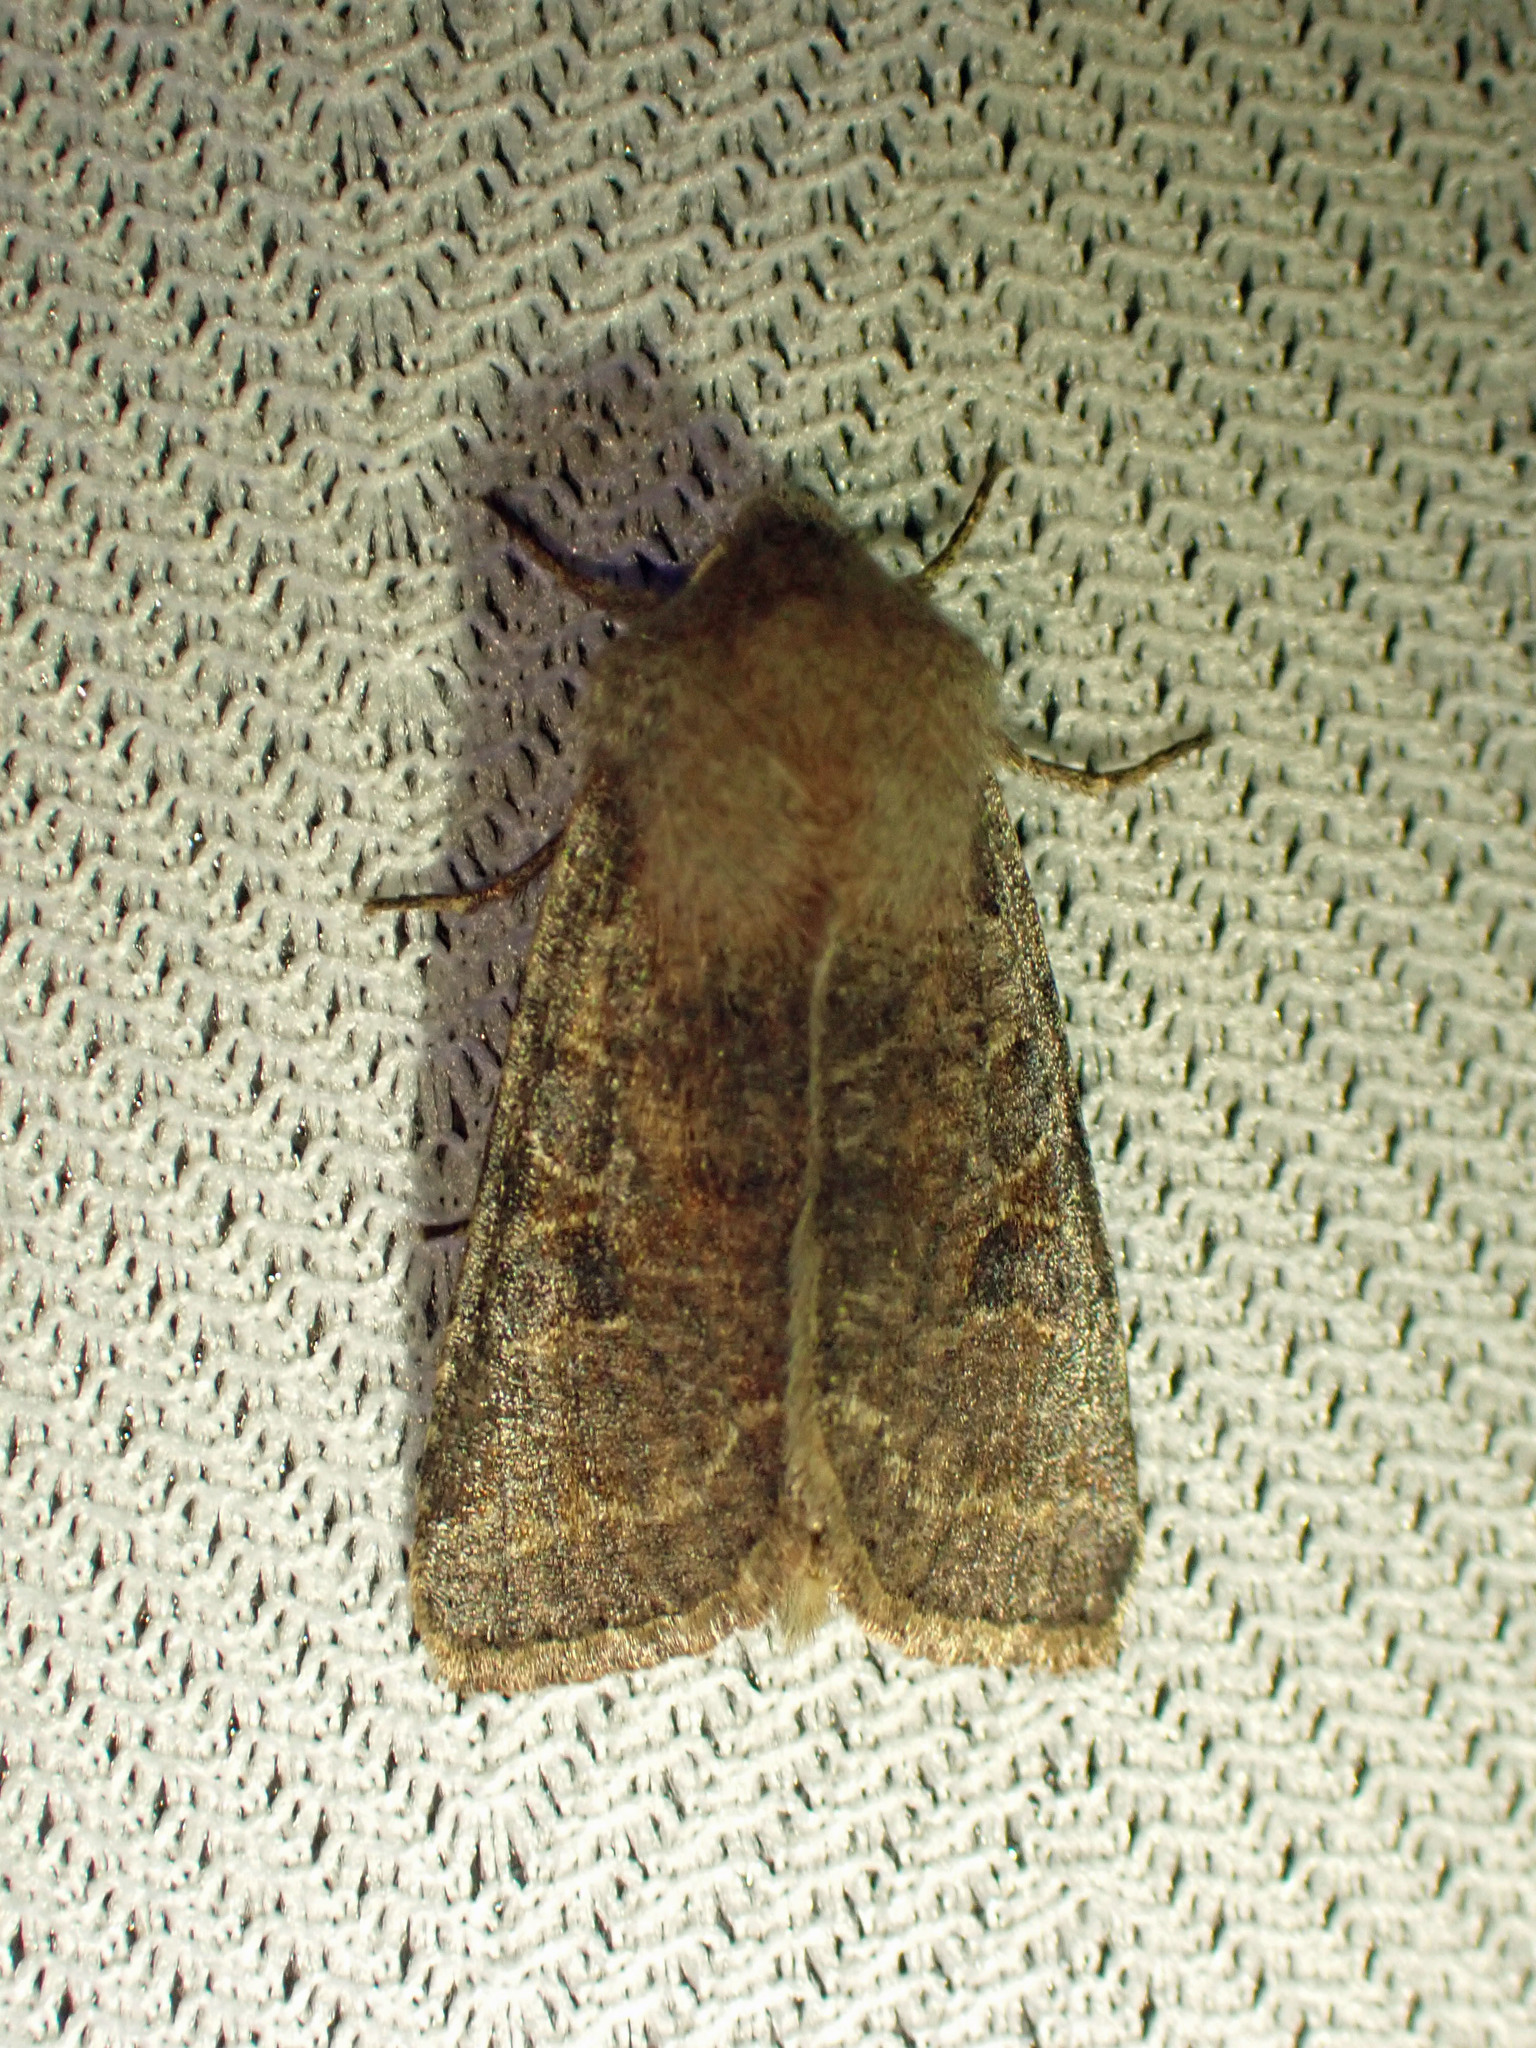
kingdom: Animalia
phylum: Arthropoda
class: Insecta
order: Lepidoptera
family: Noctuidae
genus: Orthosia
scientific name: Orthosia hibisci
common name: Green fruitworm
